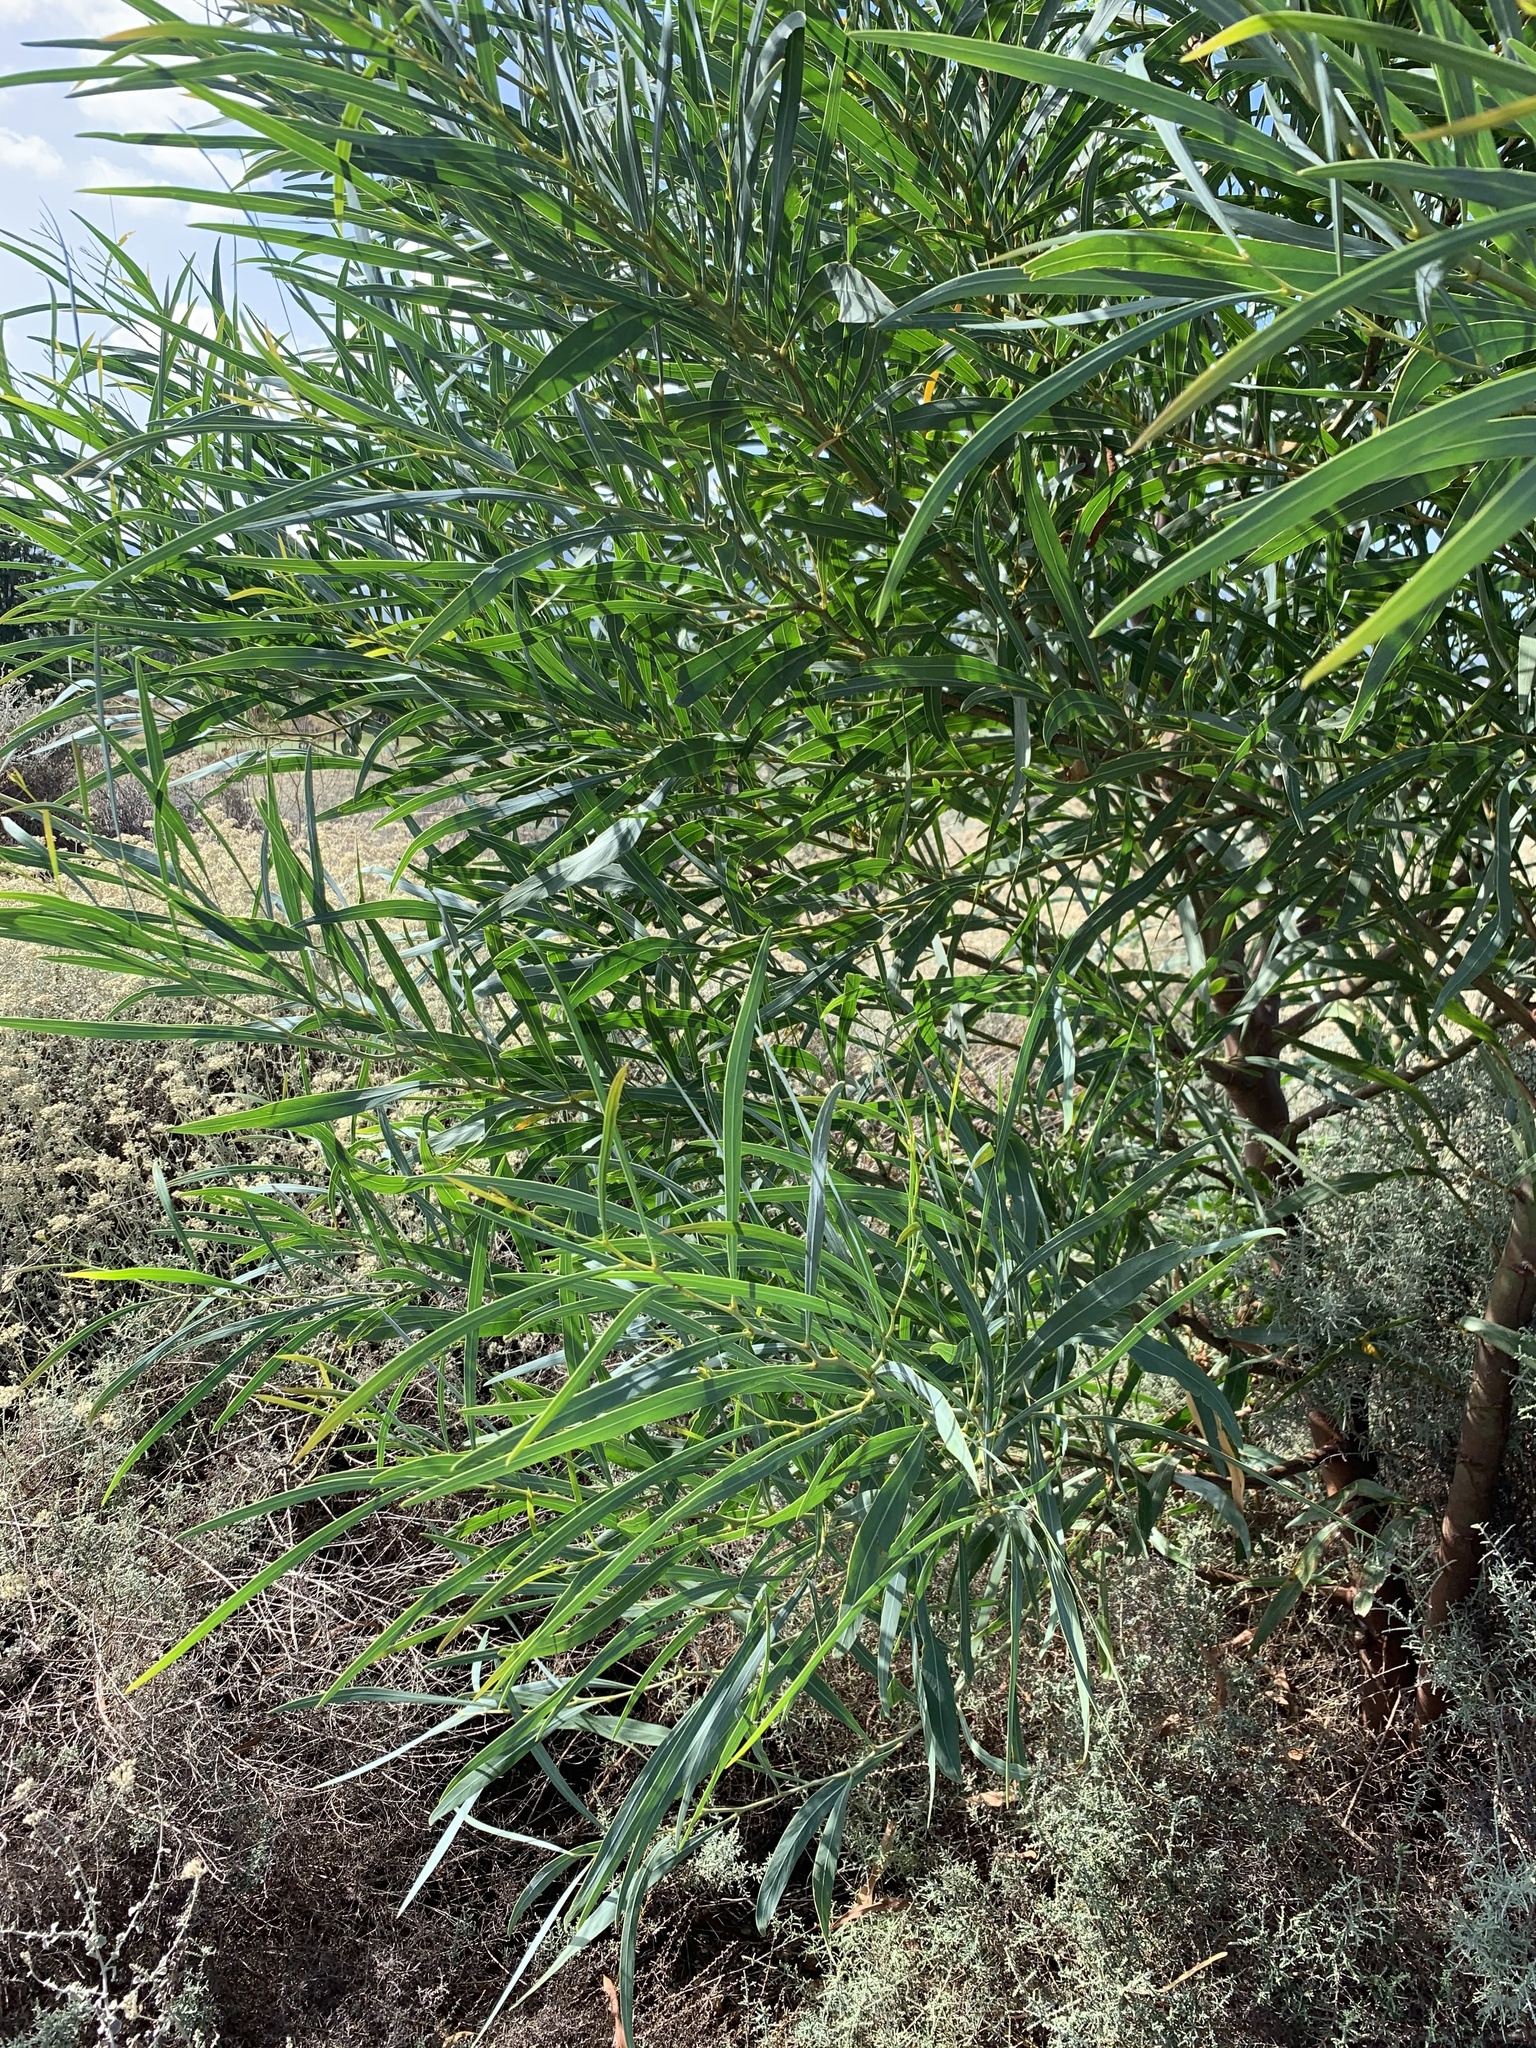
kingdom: Plantae
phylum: Tracheophyta
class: Magnoliopsida
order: Fabales
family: Fabaceae
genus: Acacia
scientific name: Acacia saligna
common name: Orange wattle
